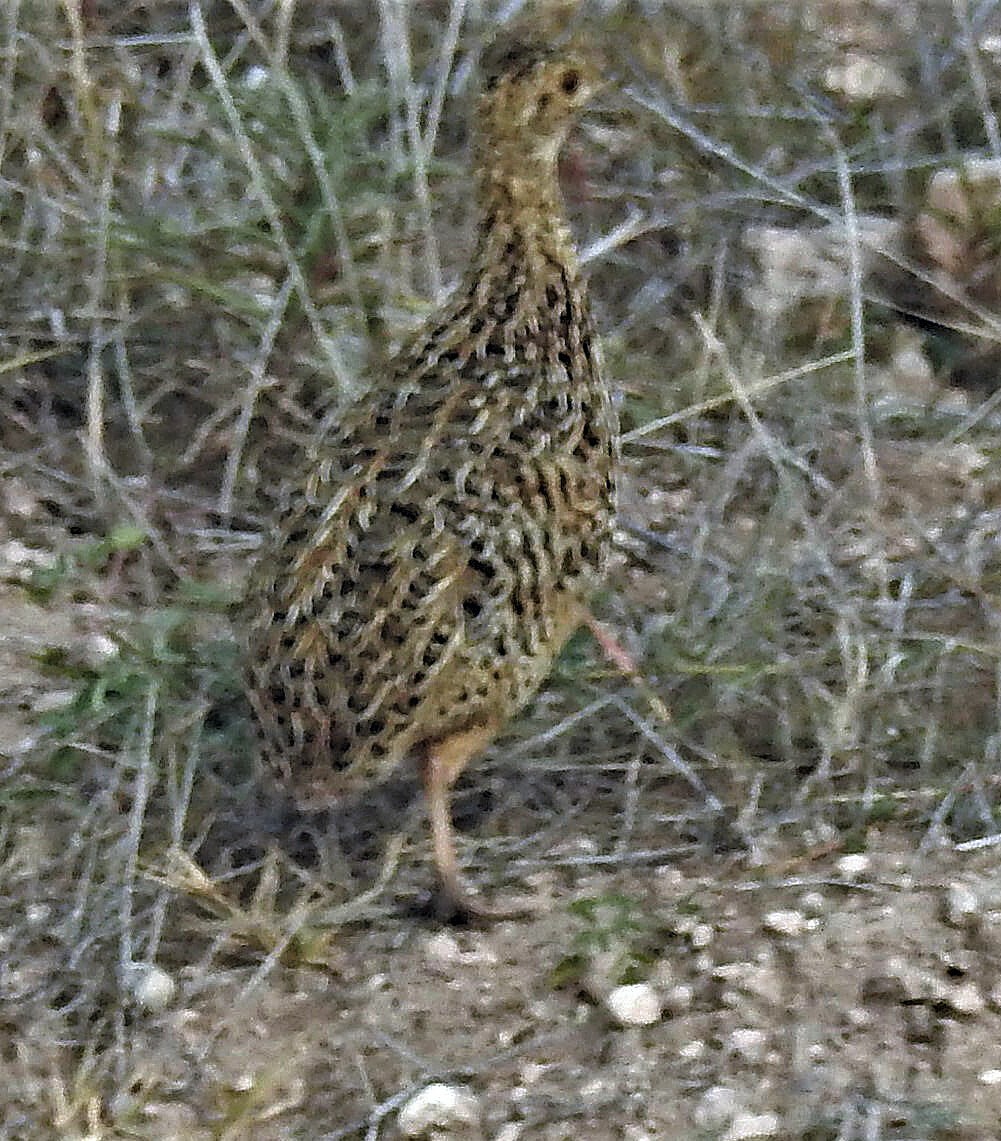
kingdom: Animalia
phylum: Chordata
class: Aves
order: Tinamiformes
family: Tinamidae
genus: Nothura
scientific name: Nothura maculosa
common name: Spotted nothura
